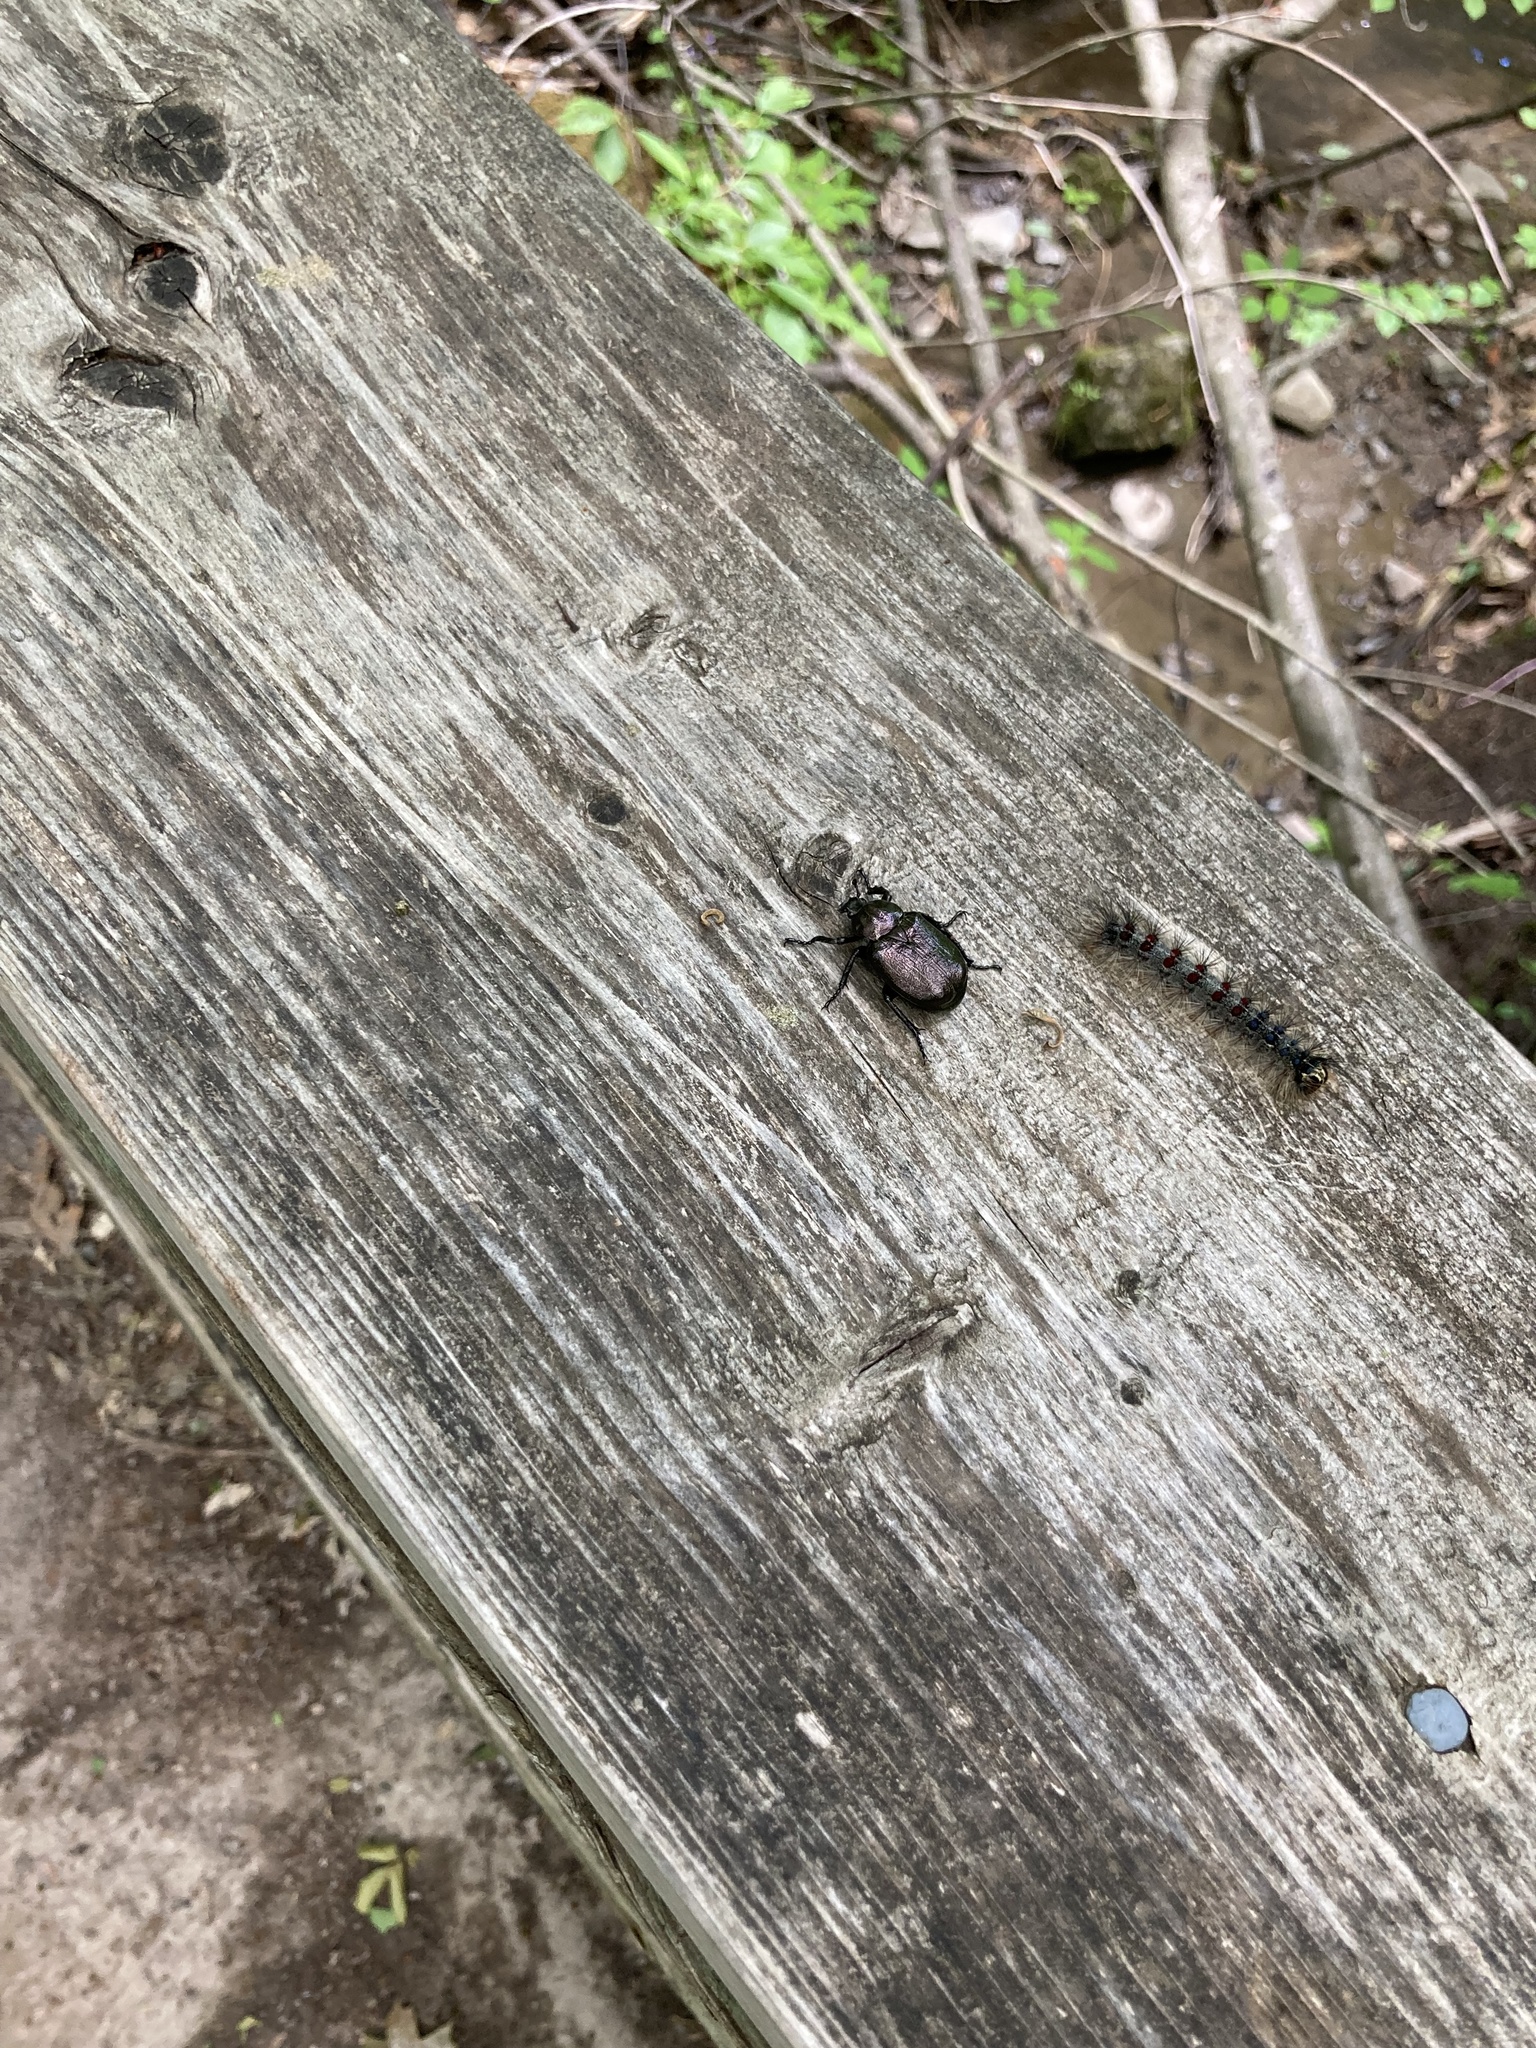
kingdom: Animalia
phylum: Arthropoda
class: Insecta
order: Coleoptera
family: Scarabaeidae
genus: Osmoderma
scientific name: Osmoderma scabra
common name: Rough hermit beetle
